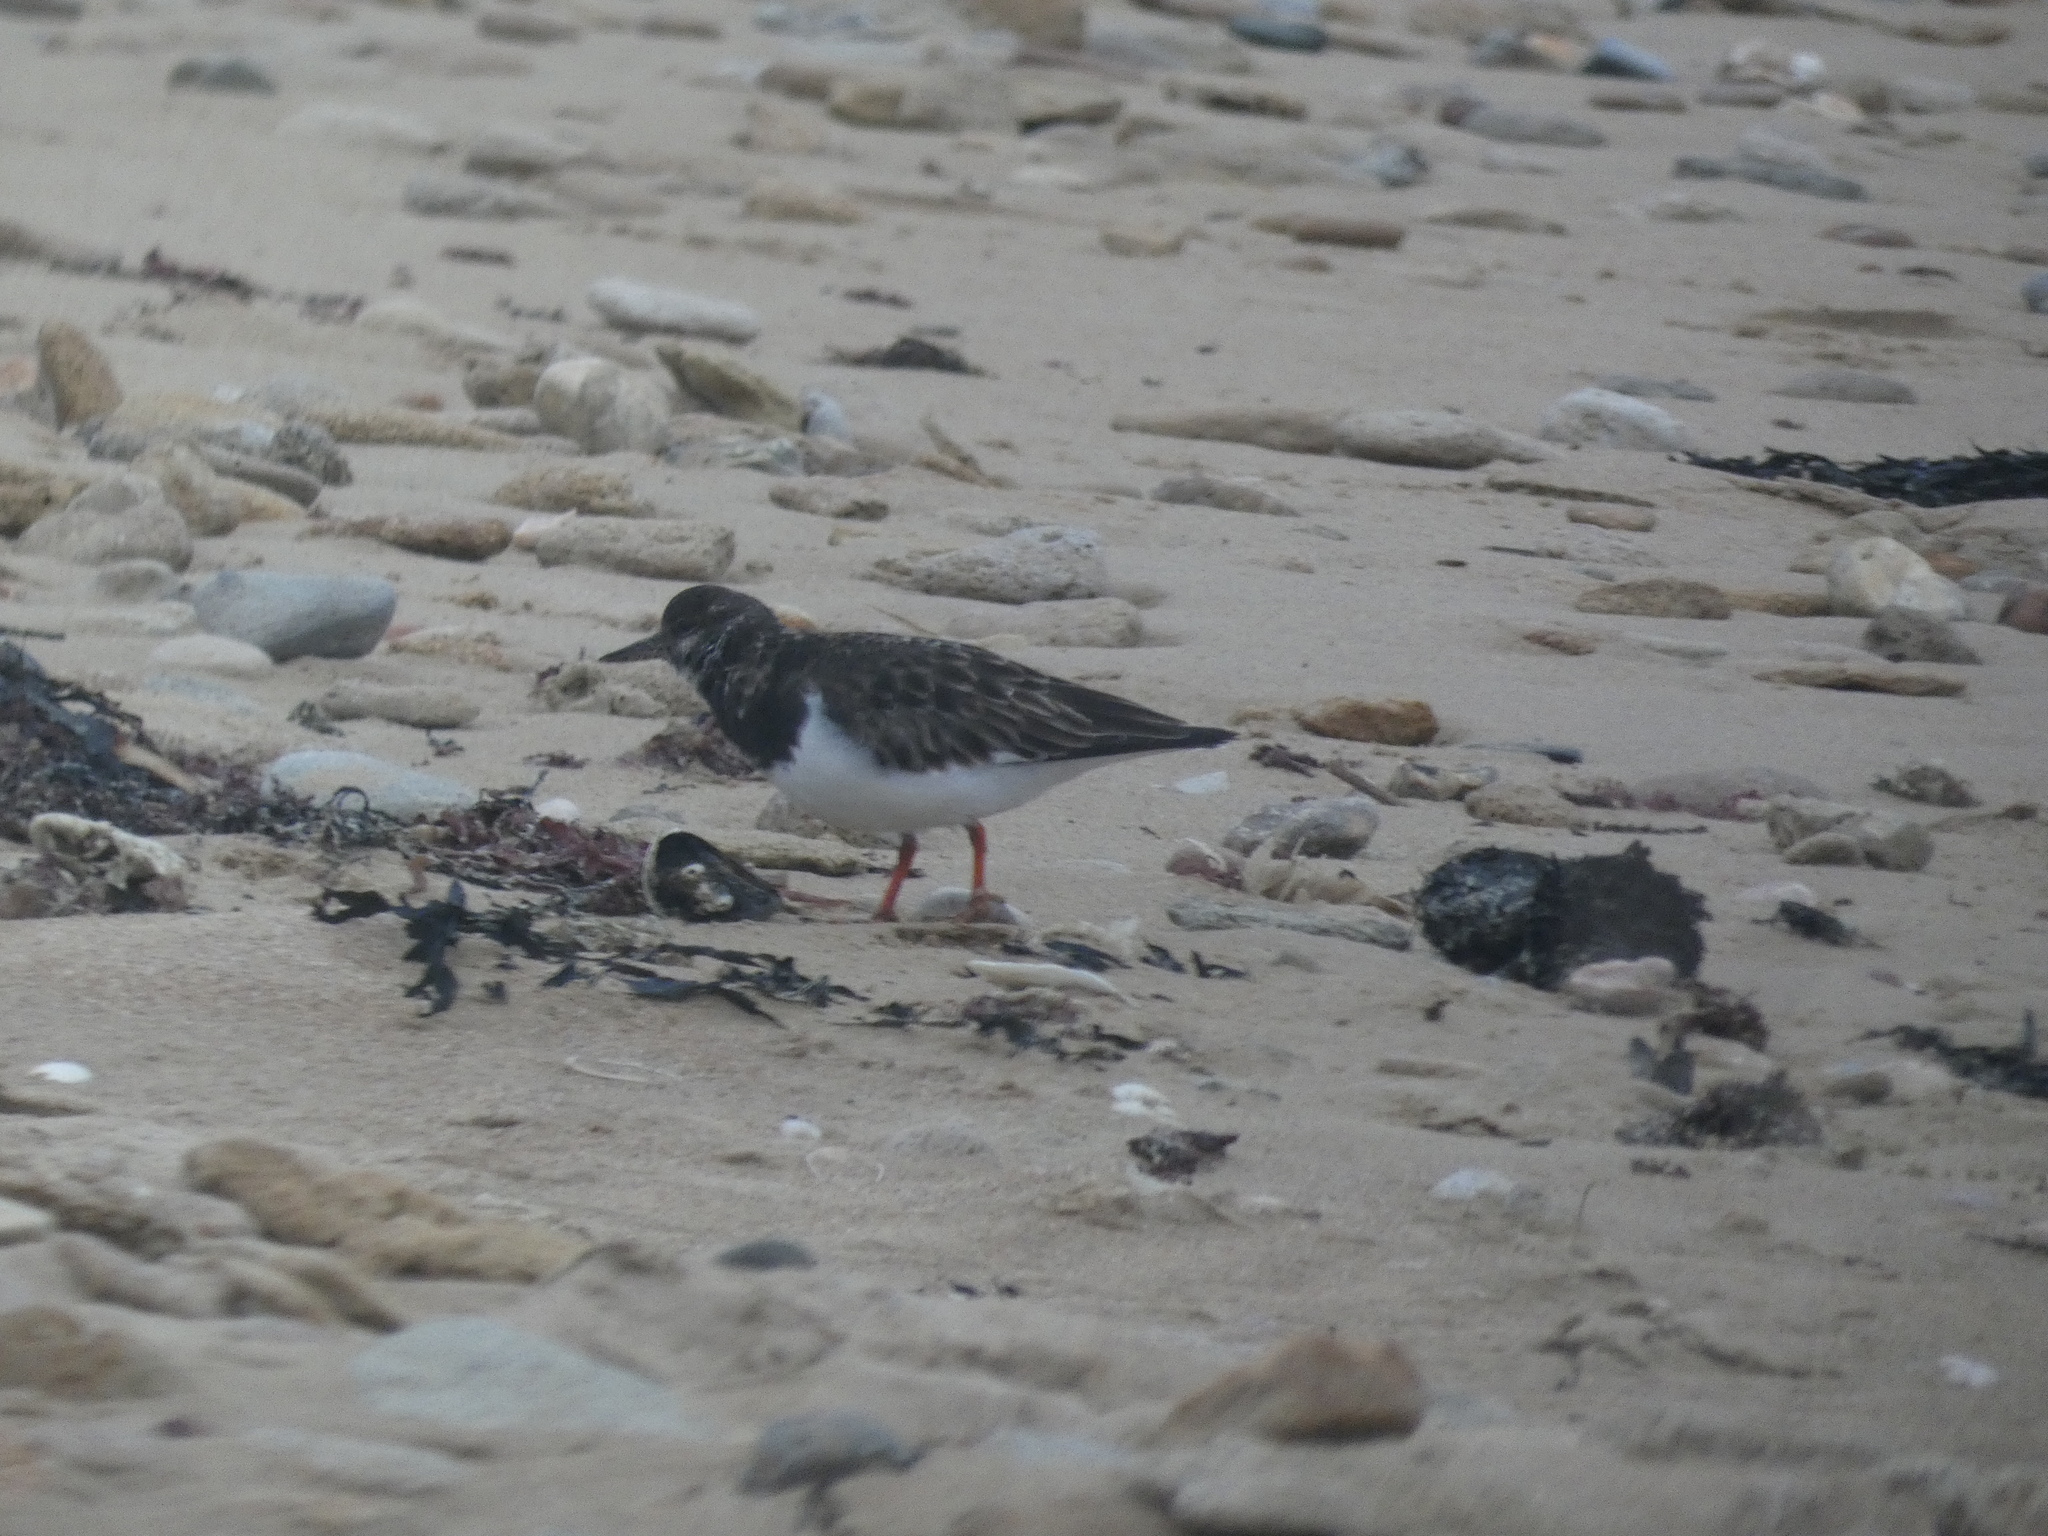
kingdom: Animalia
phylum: Chordata
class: Aves
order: Charadriiformes
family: Scolopacidae
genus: Arenaria
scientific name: Arenaria interpres
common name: Ruddy turnstone
